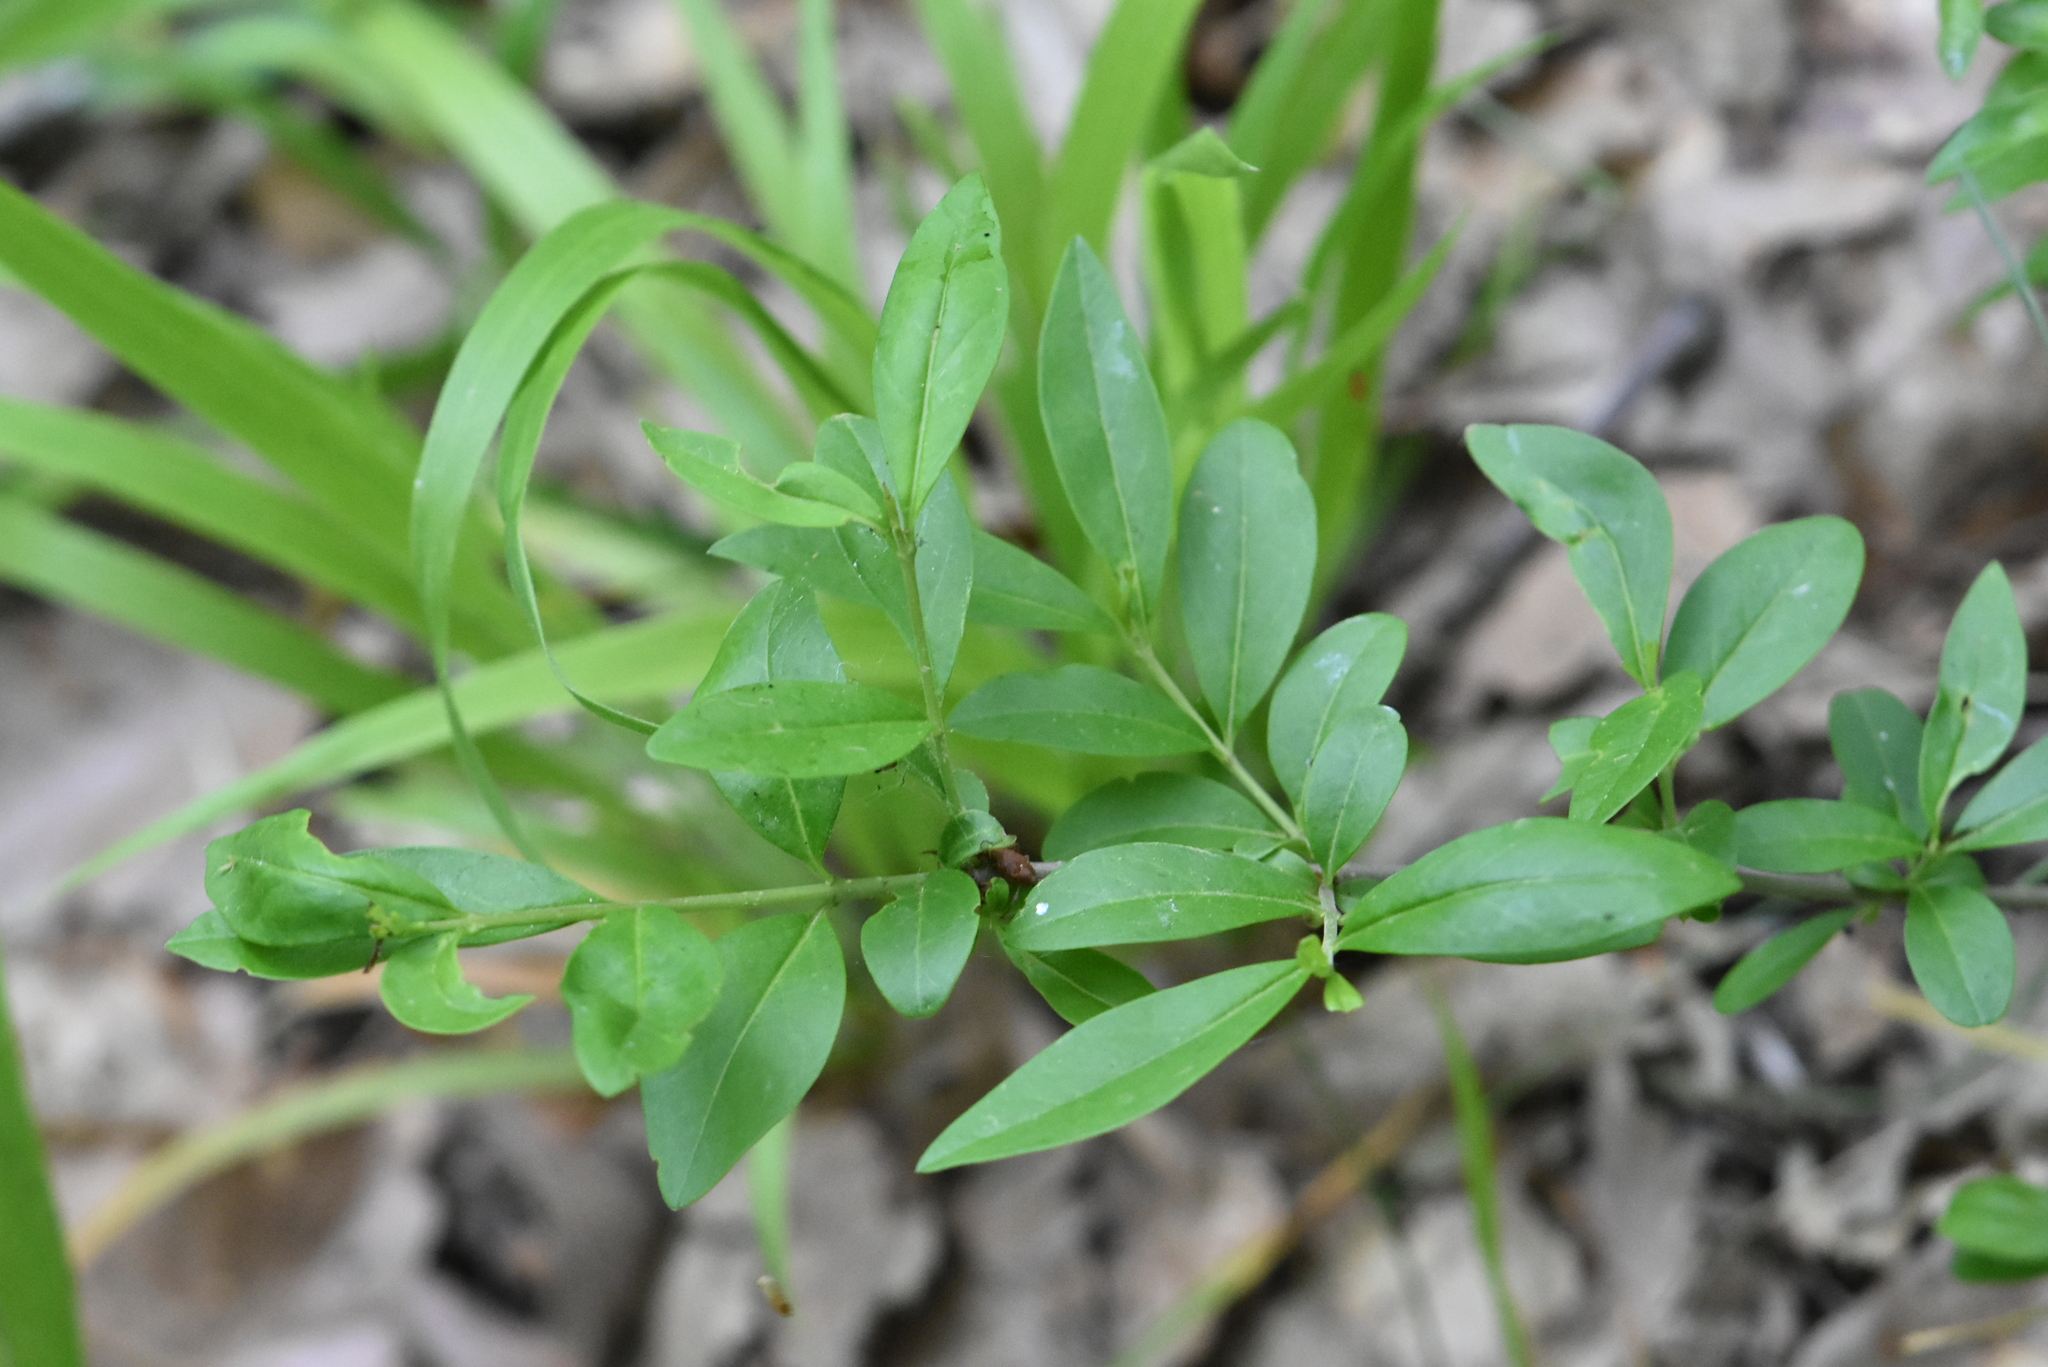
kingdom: Plantae
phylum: Tracheophyta
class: Magnoliopsida
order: Lamiales
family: Oleaceae
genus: Ligustrum
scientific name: Ligustrum vulgare
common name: Wild privet
